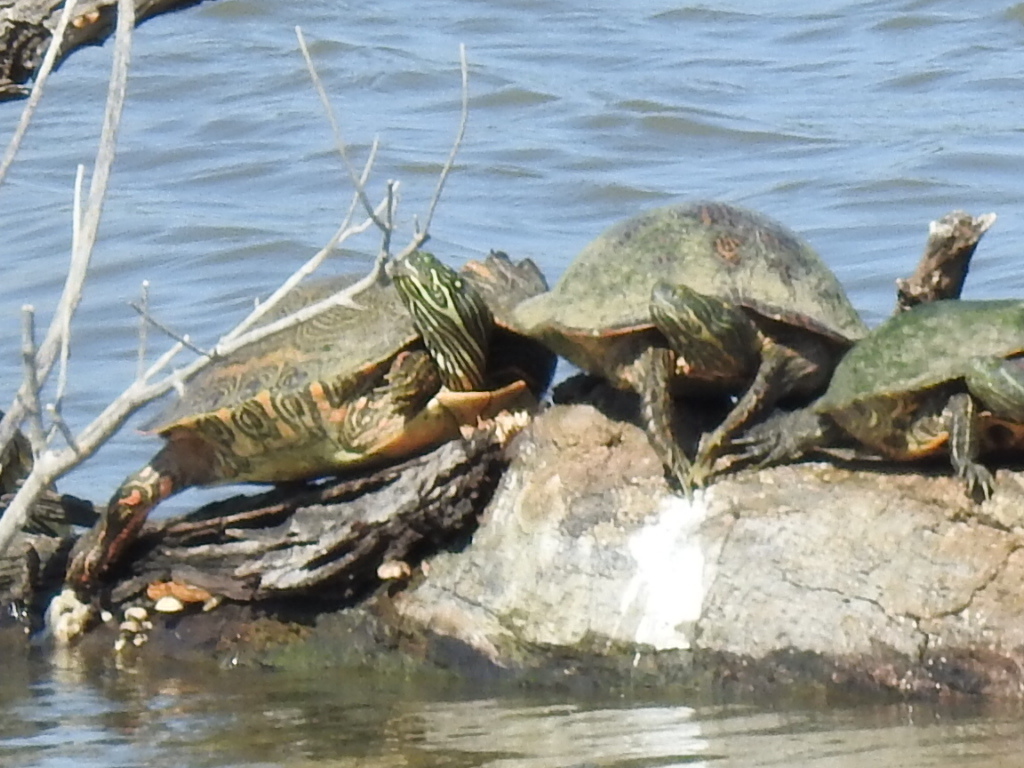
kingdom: Animalia
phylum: Chordata
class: Testudines
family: Emydidae
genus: Pseudemys
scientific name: Pseudemys texana
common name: Texas river cooter
